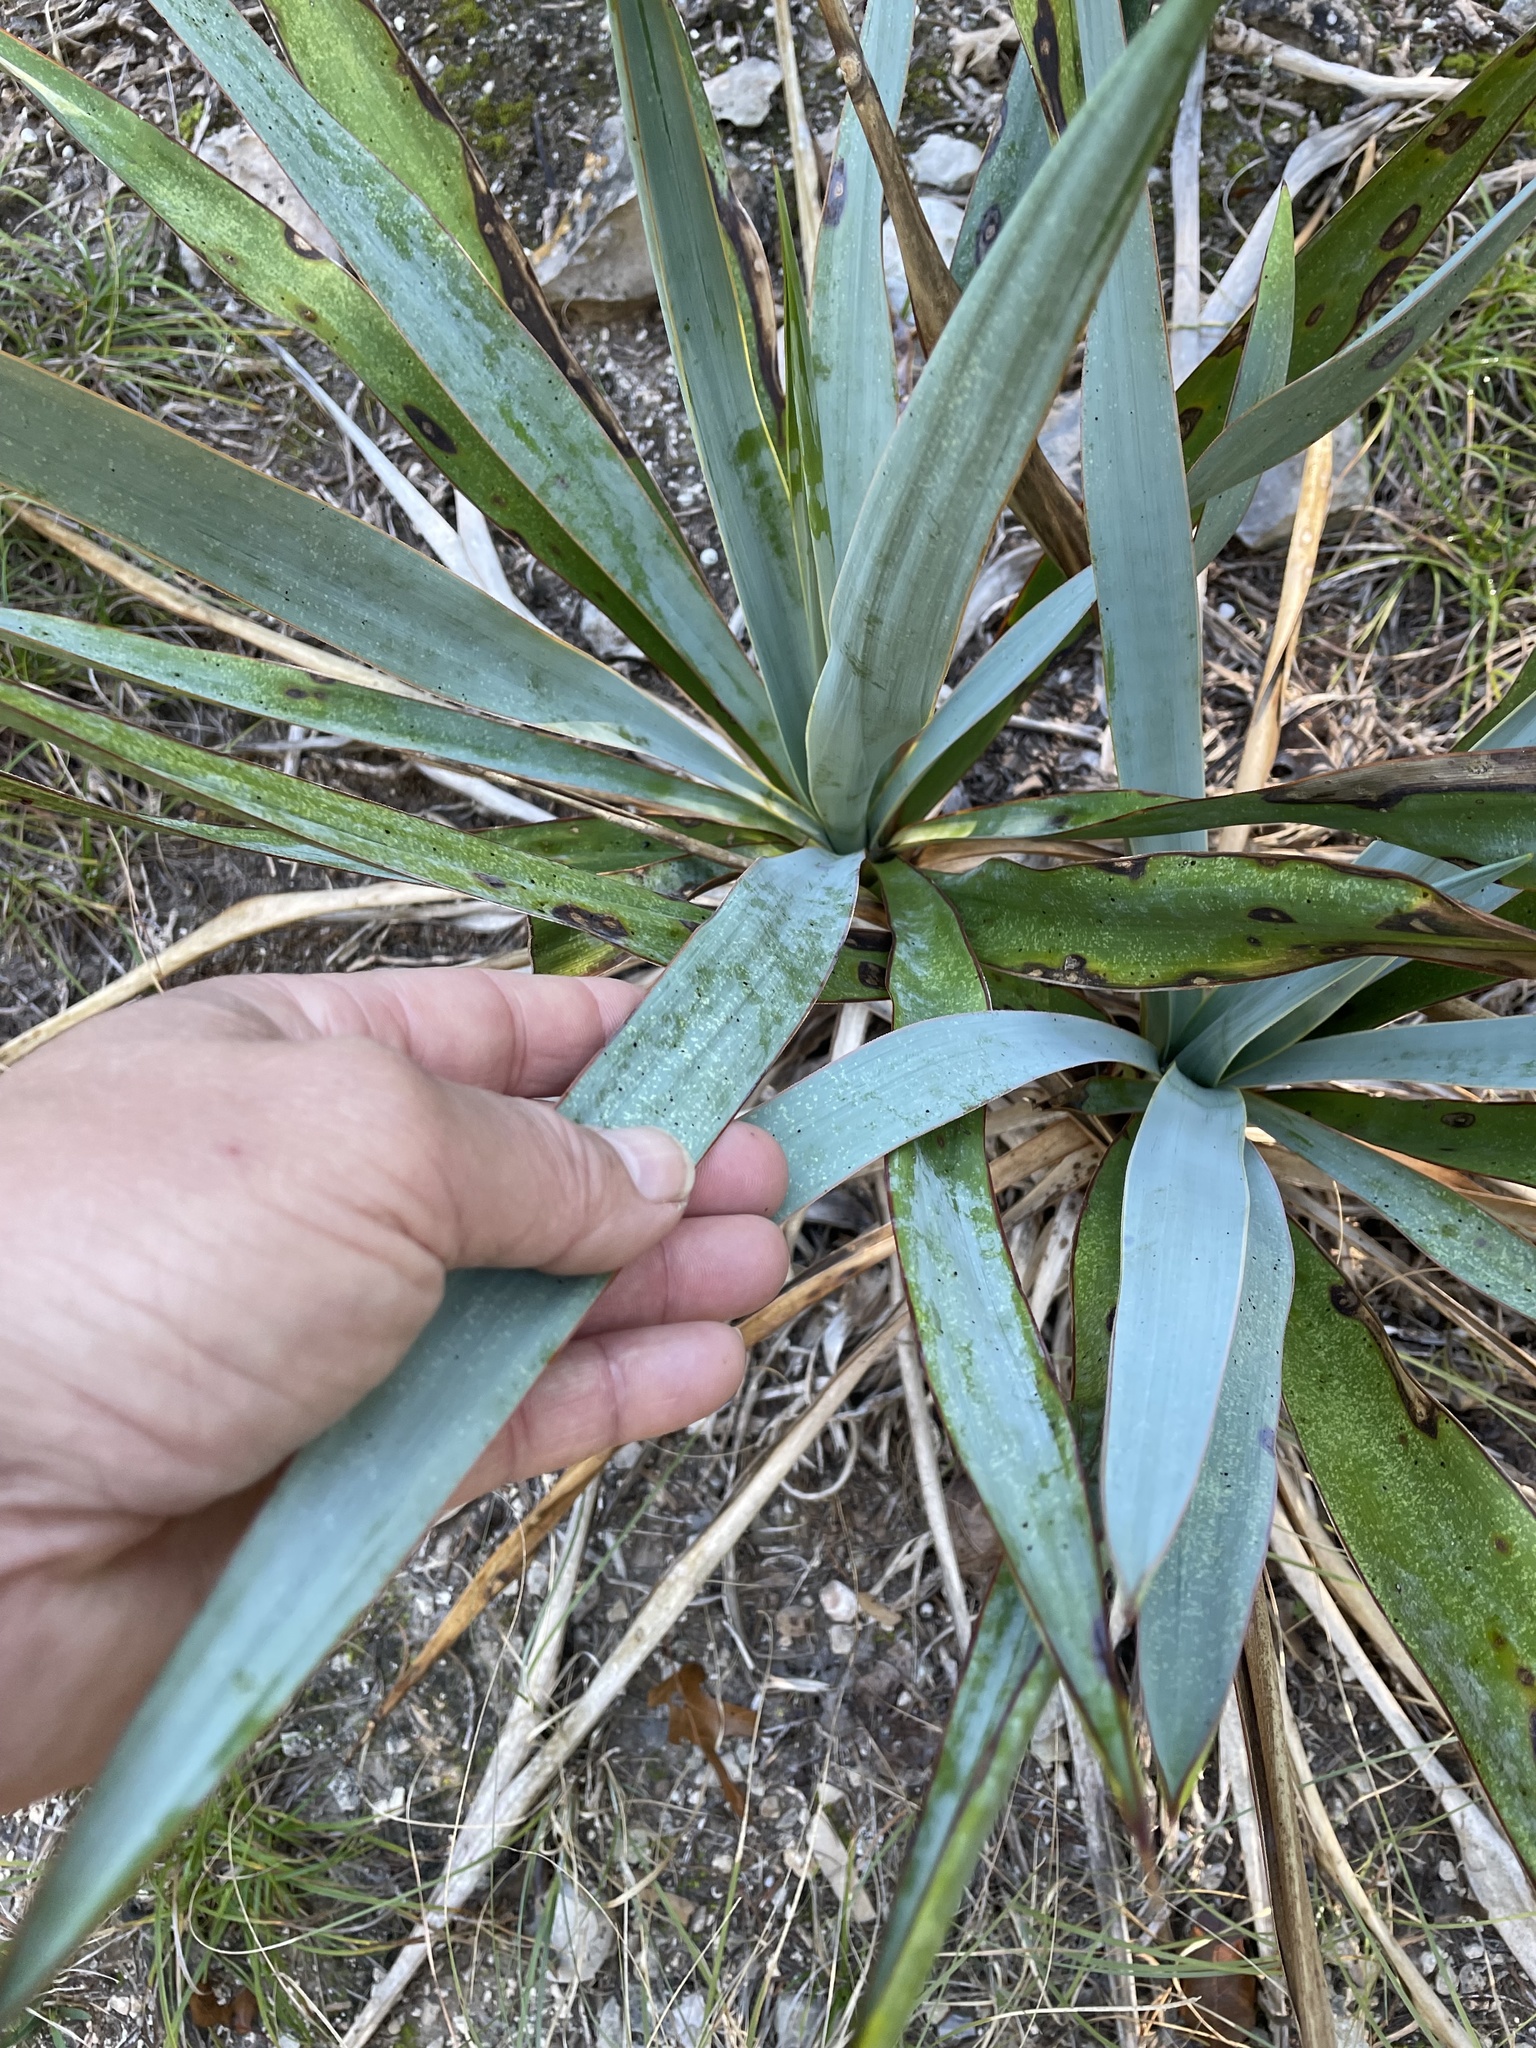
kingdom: Plantae
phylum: Tracheophyta
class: Liliopsida
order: Asparagales
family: Asparagaceae
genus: Yucca
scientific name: Yucca pallida
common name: Pale leaf yucca
